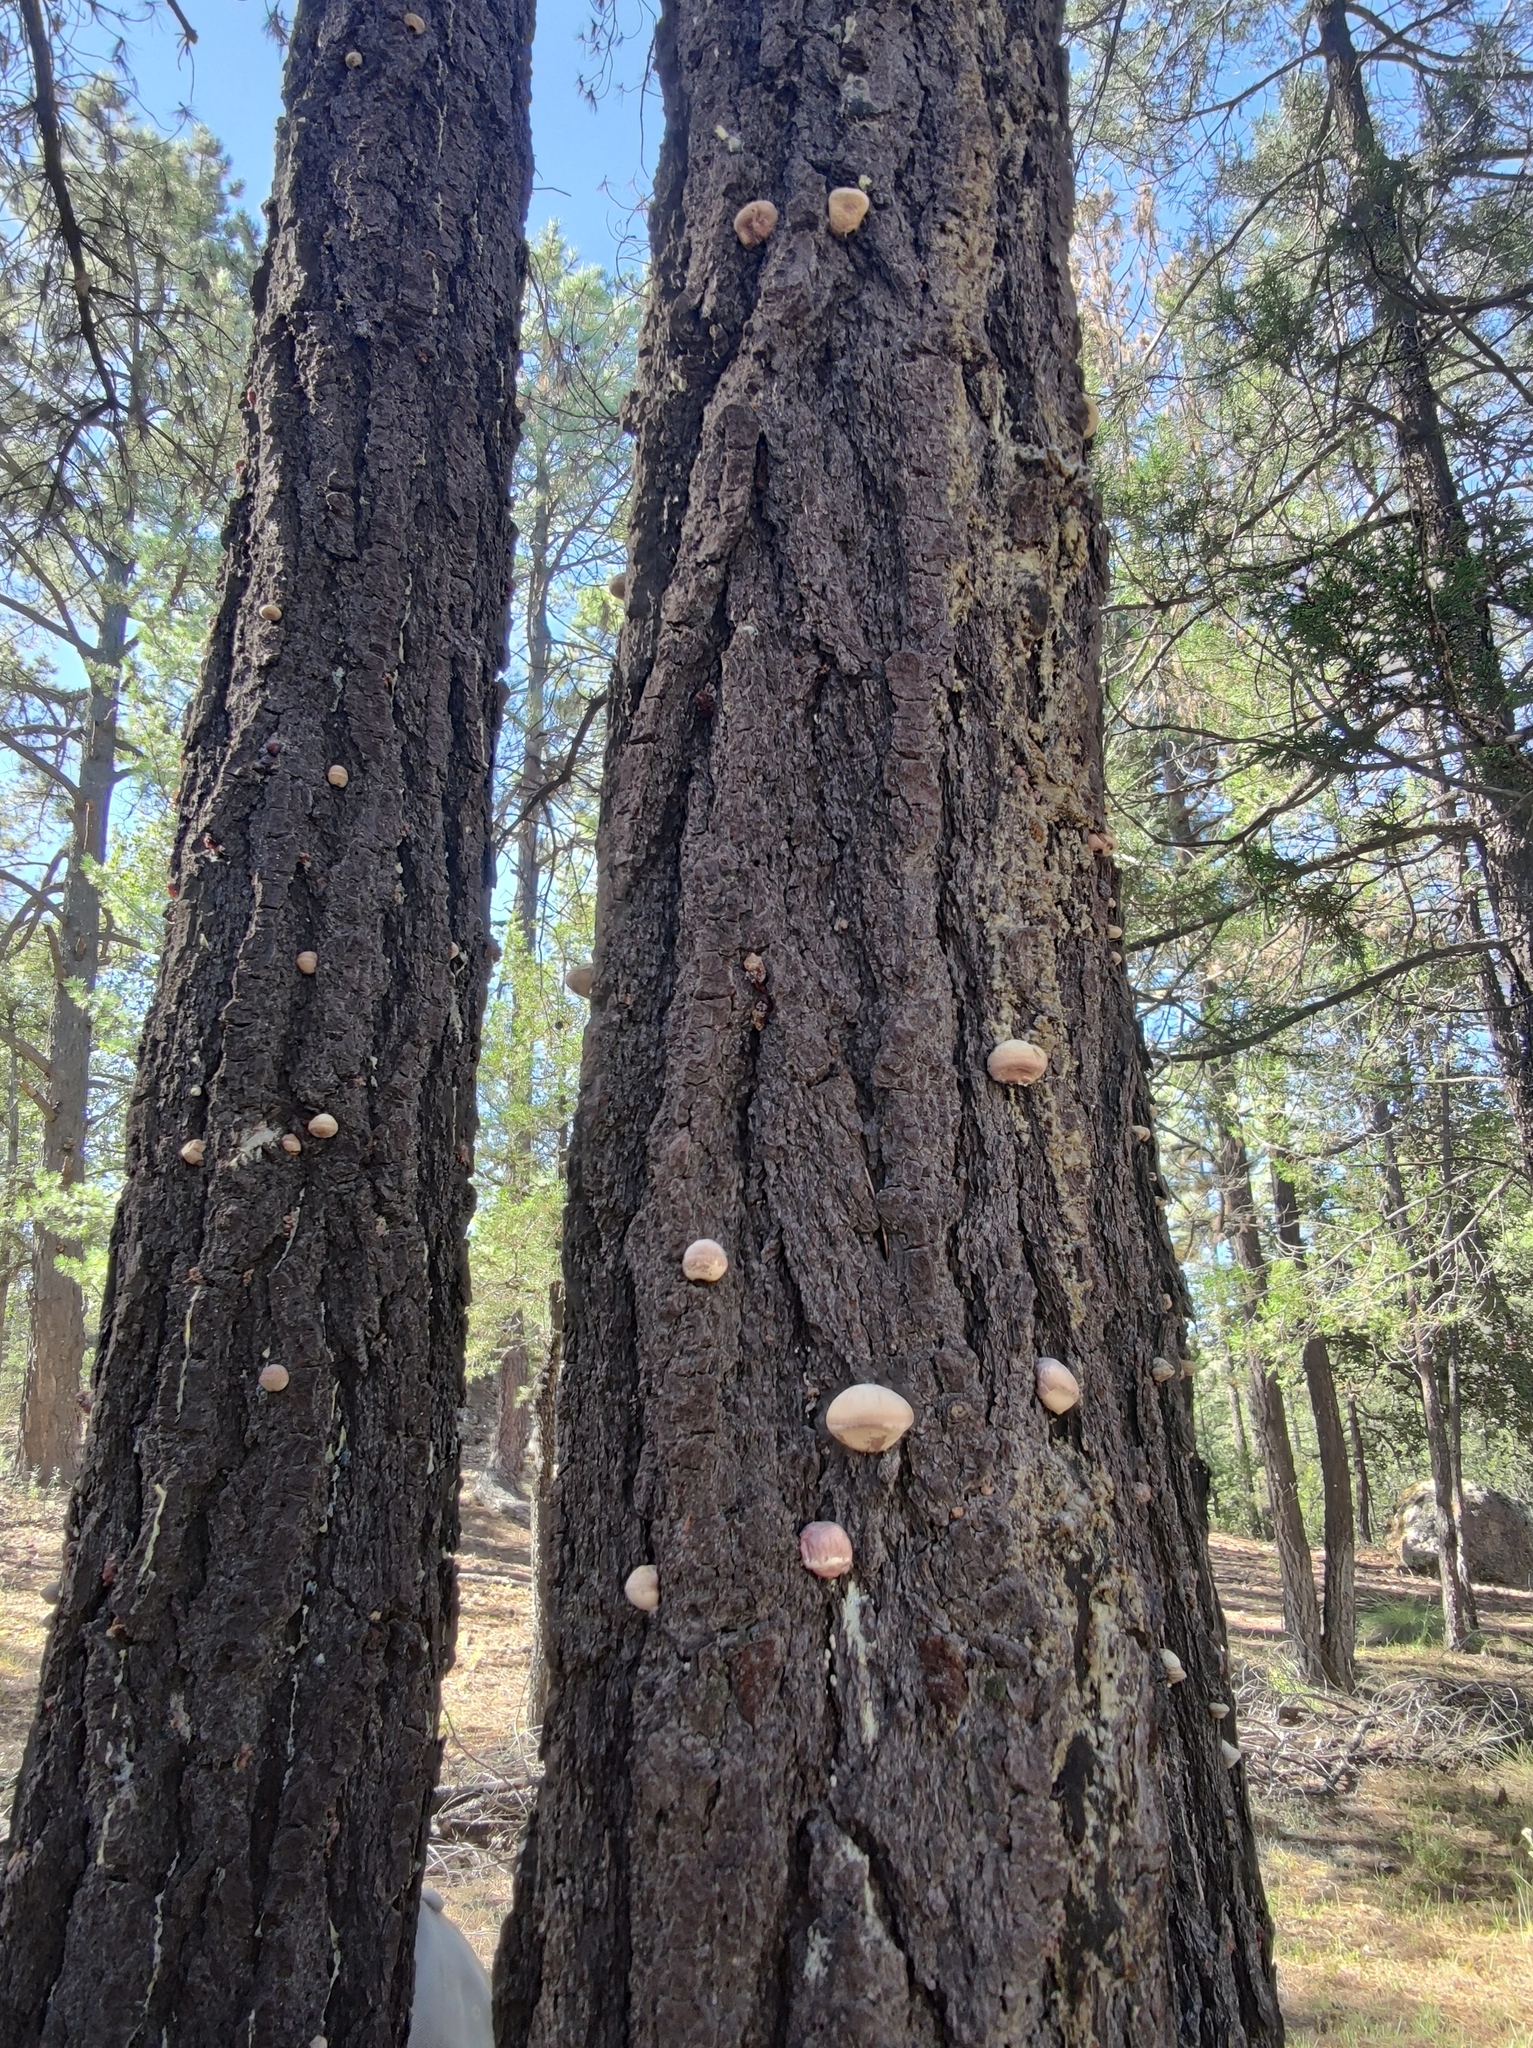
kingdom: Fungi
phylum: Basidiomycota
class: Agaricomycetes
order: Polyporales
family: Polyporaceae
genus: Cryptoporus
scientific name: Cryptoporus volvatus
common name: Veiled polypore
